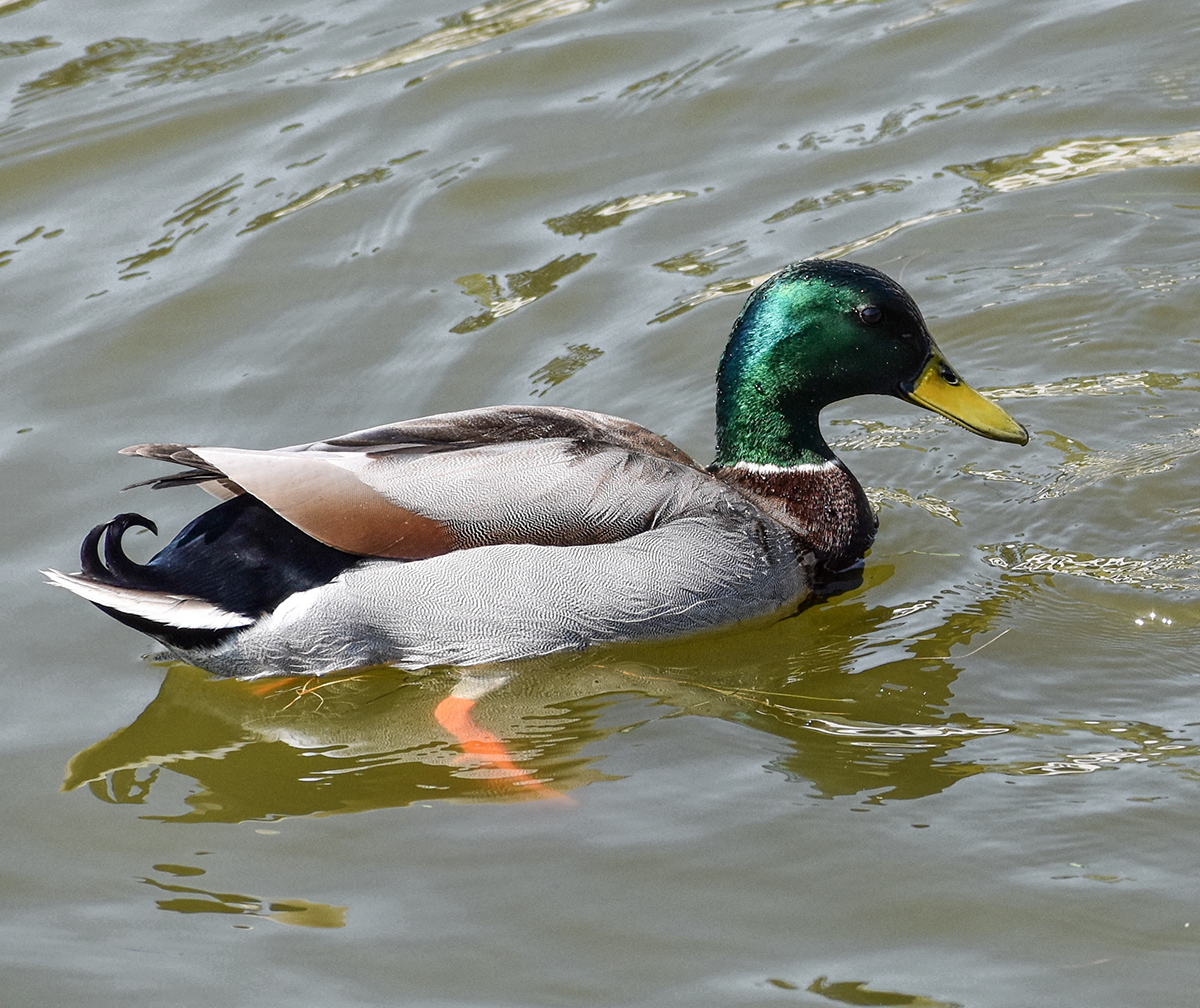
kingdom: Animalia
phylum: Chordata
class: Aves
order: Anseriformes
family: Anatidae
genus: Anas
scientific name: Anas platyrhynchos
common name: Mallard
